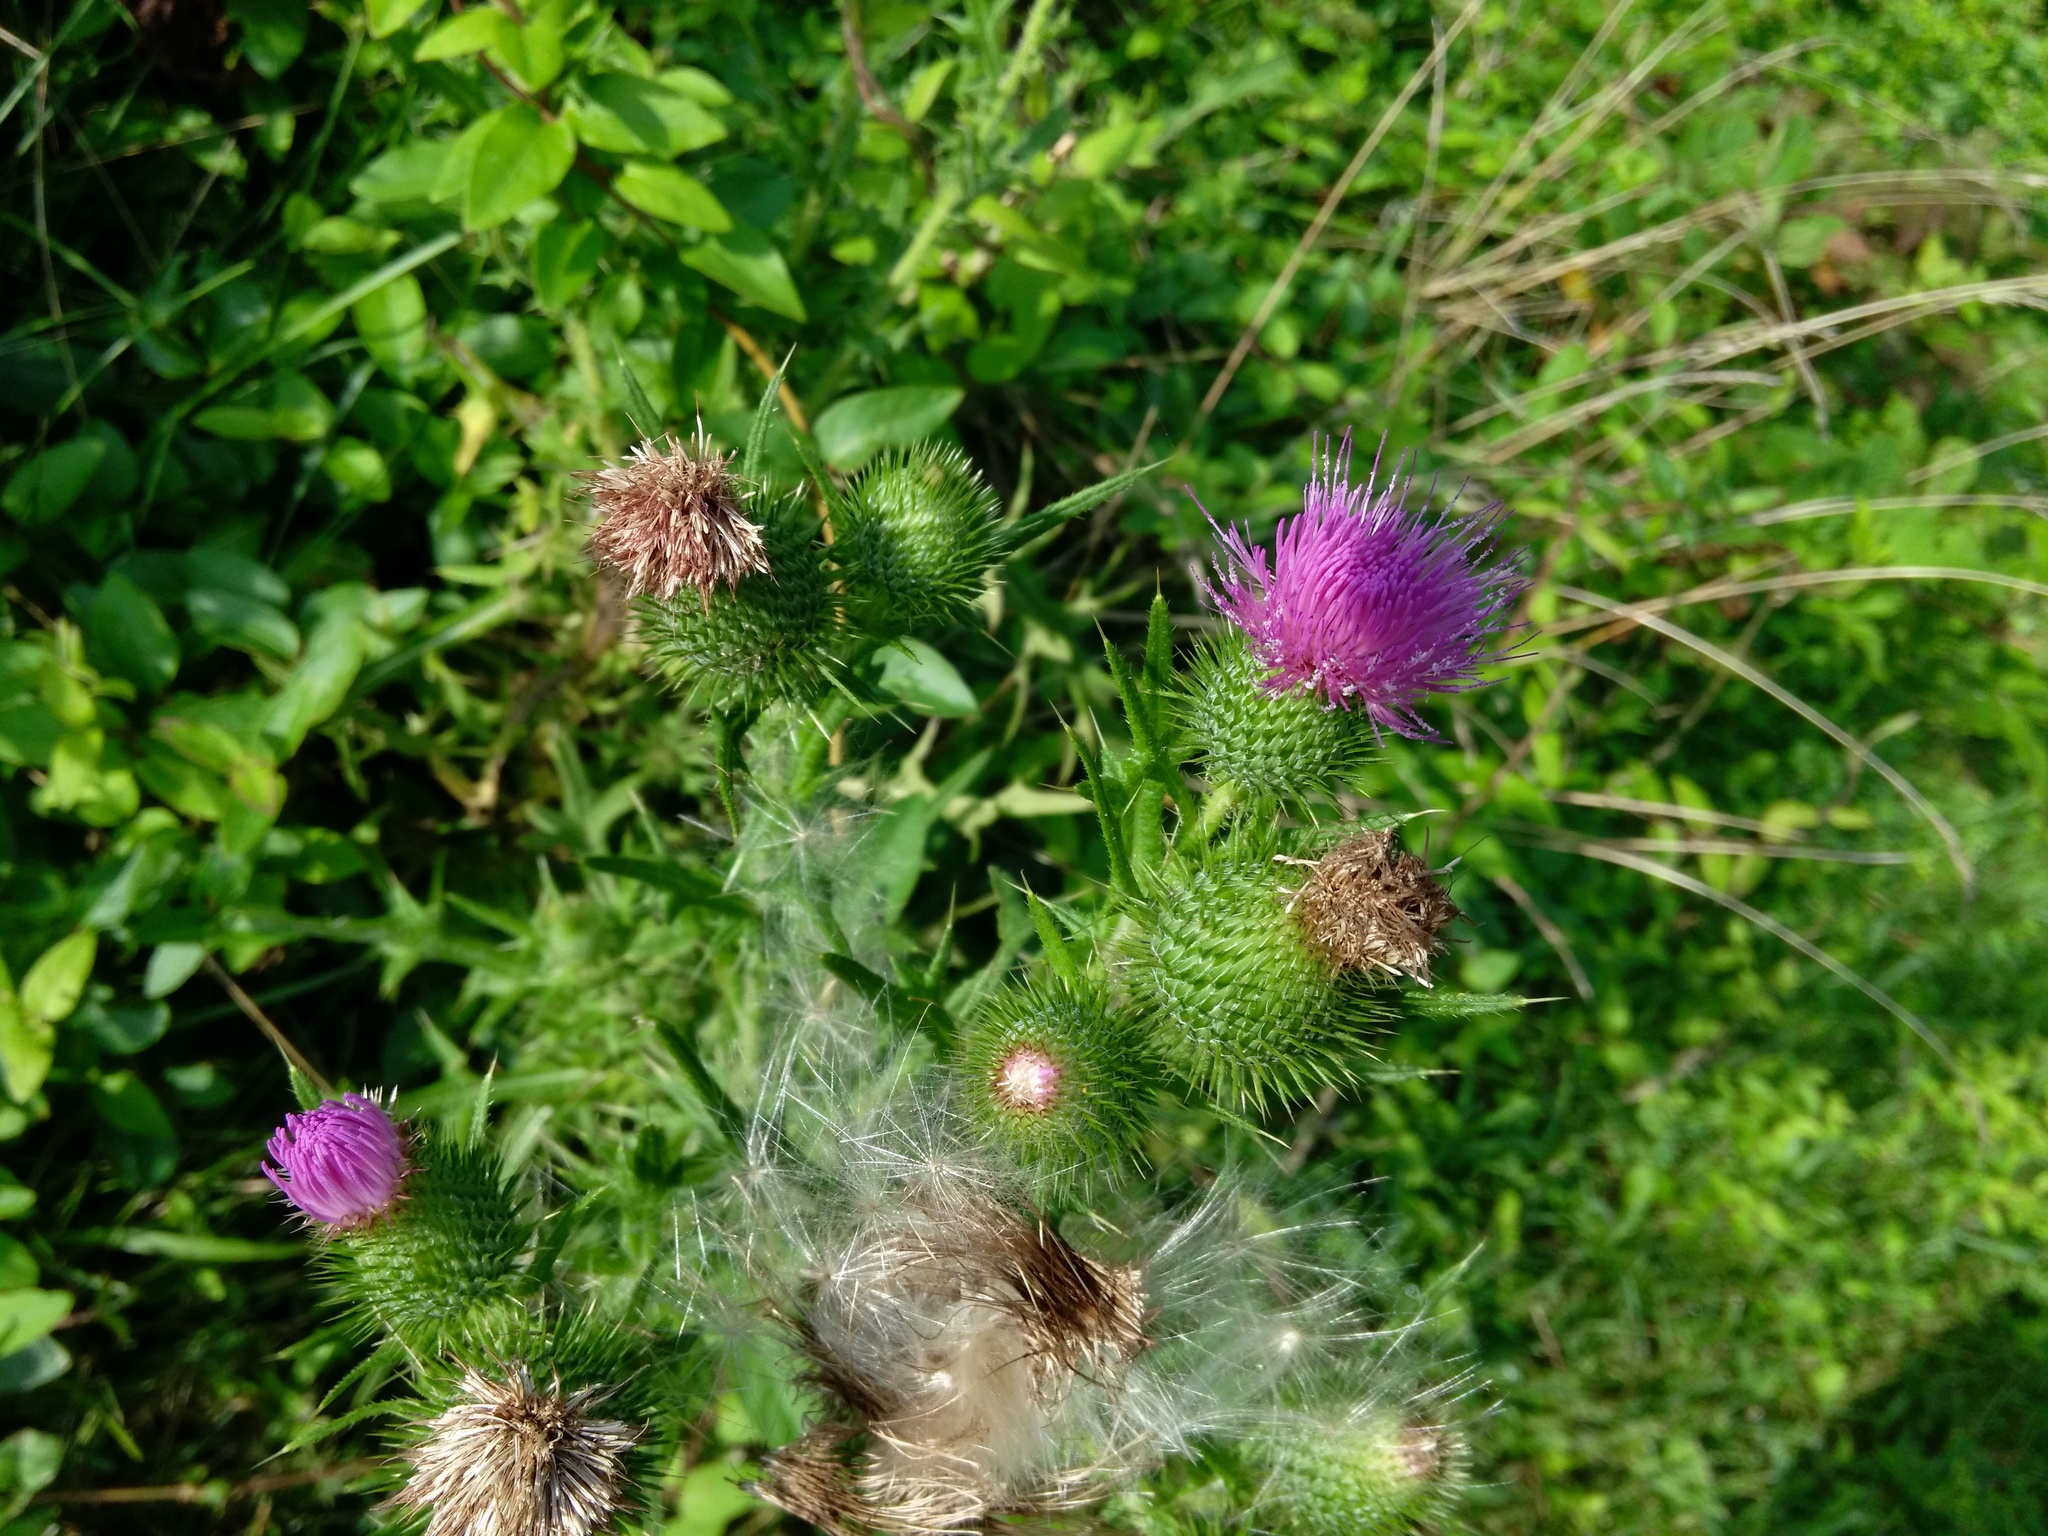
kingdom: Plantae
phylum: Tracheophyta
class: Magnoliopsida
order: Asterales
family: Asteraceae
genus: Cirsium
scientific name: Cirsium vulgare
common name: Bull thistle
